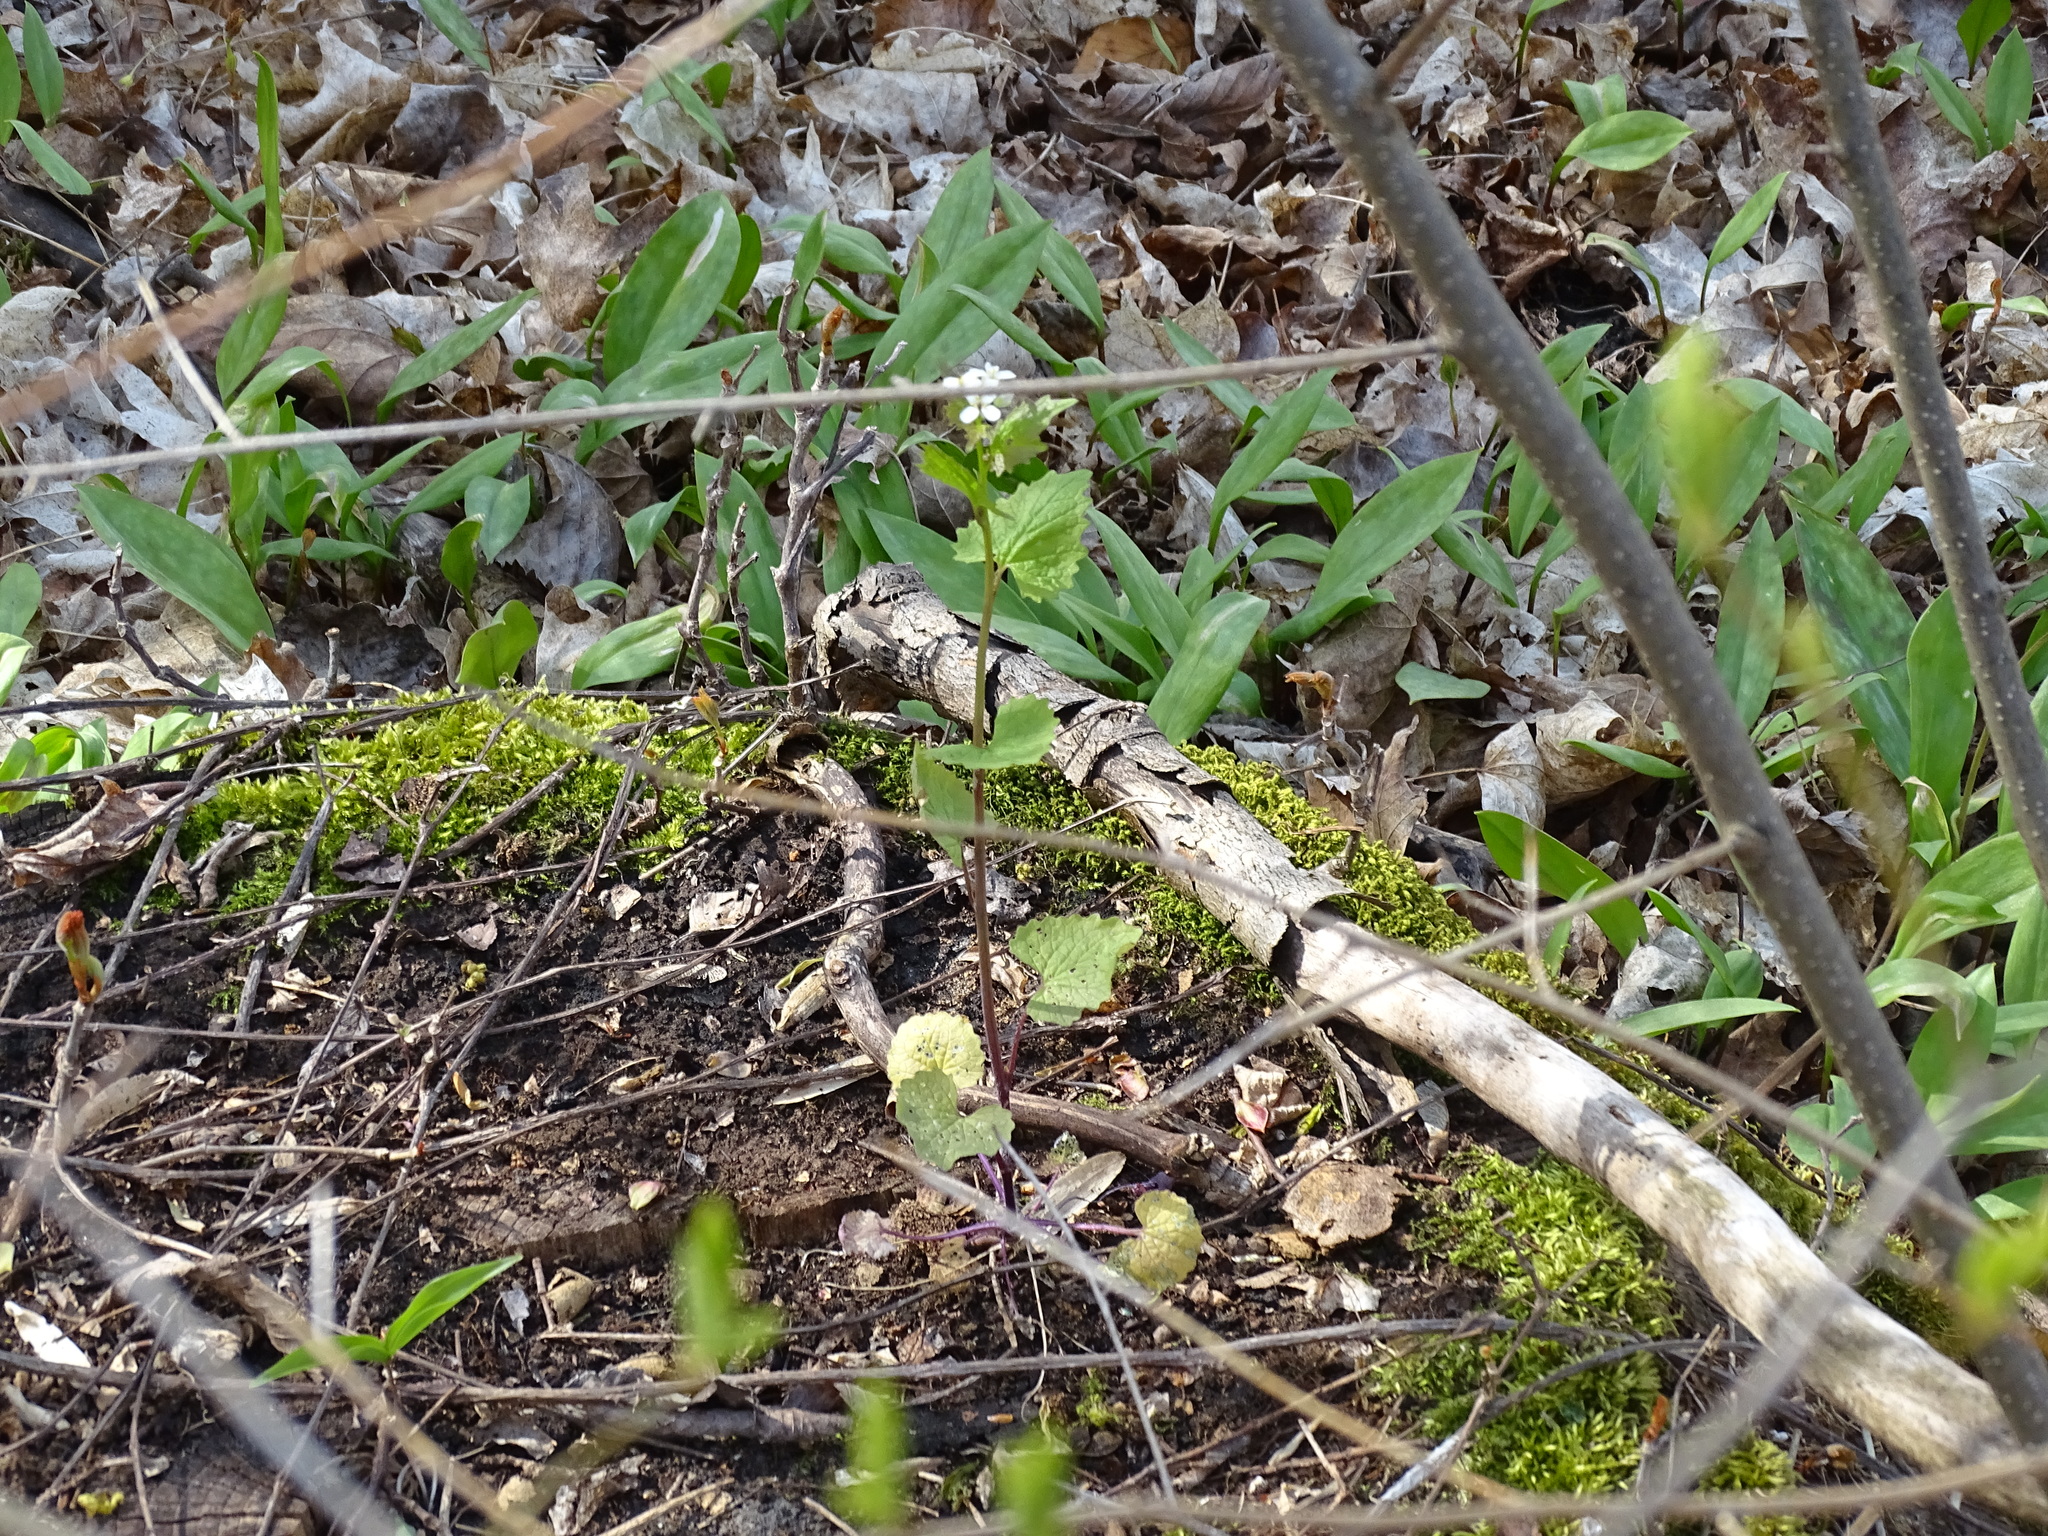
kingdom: Plantae
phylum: Tracheophyta
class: Magnoliopsida
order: Brassicales
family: Brassicaceae
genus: Alliaria
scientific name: Alliaria petiolata
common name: Garlic mustard
